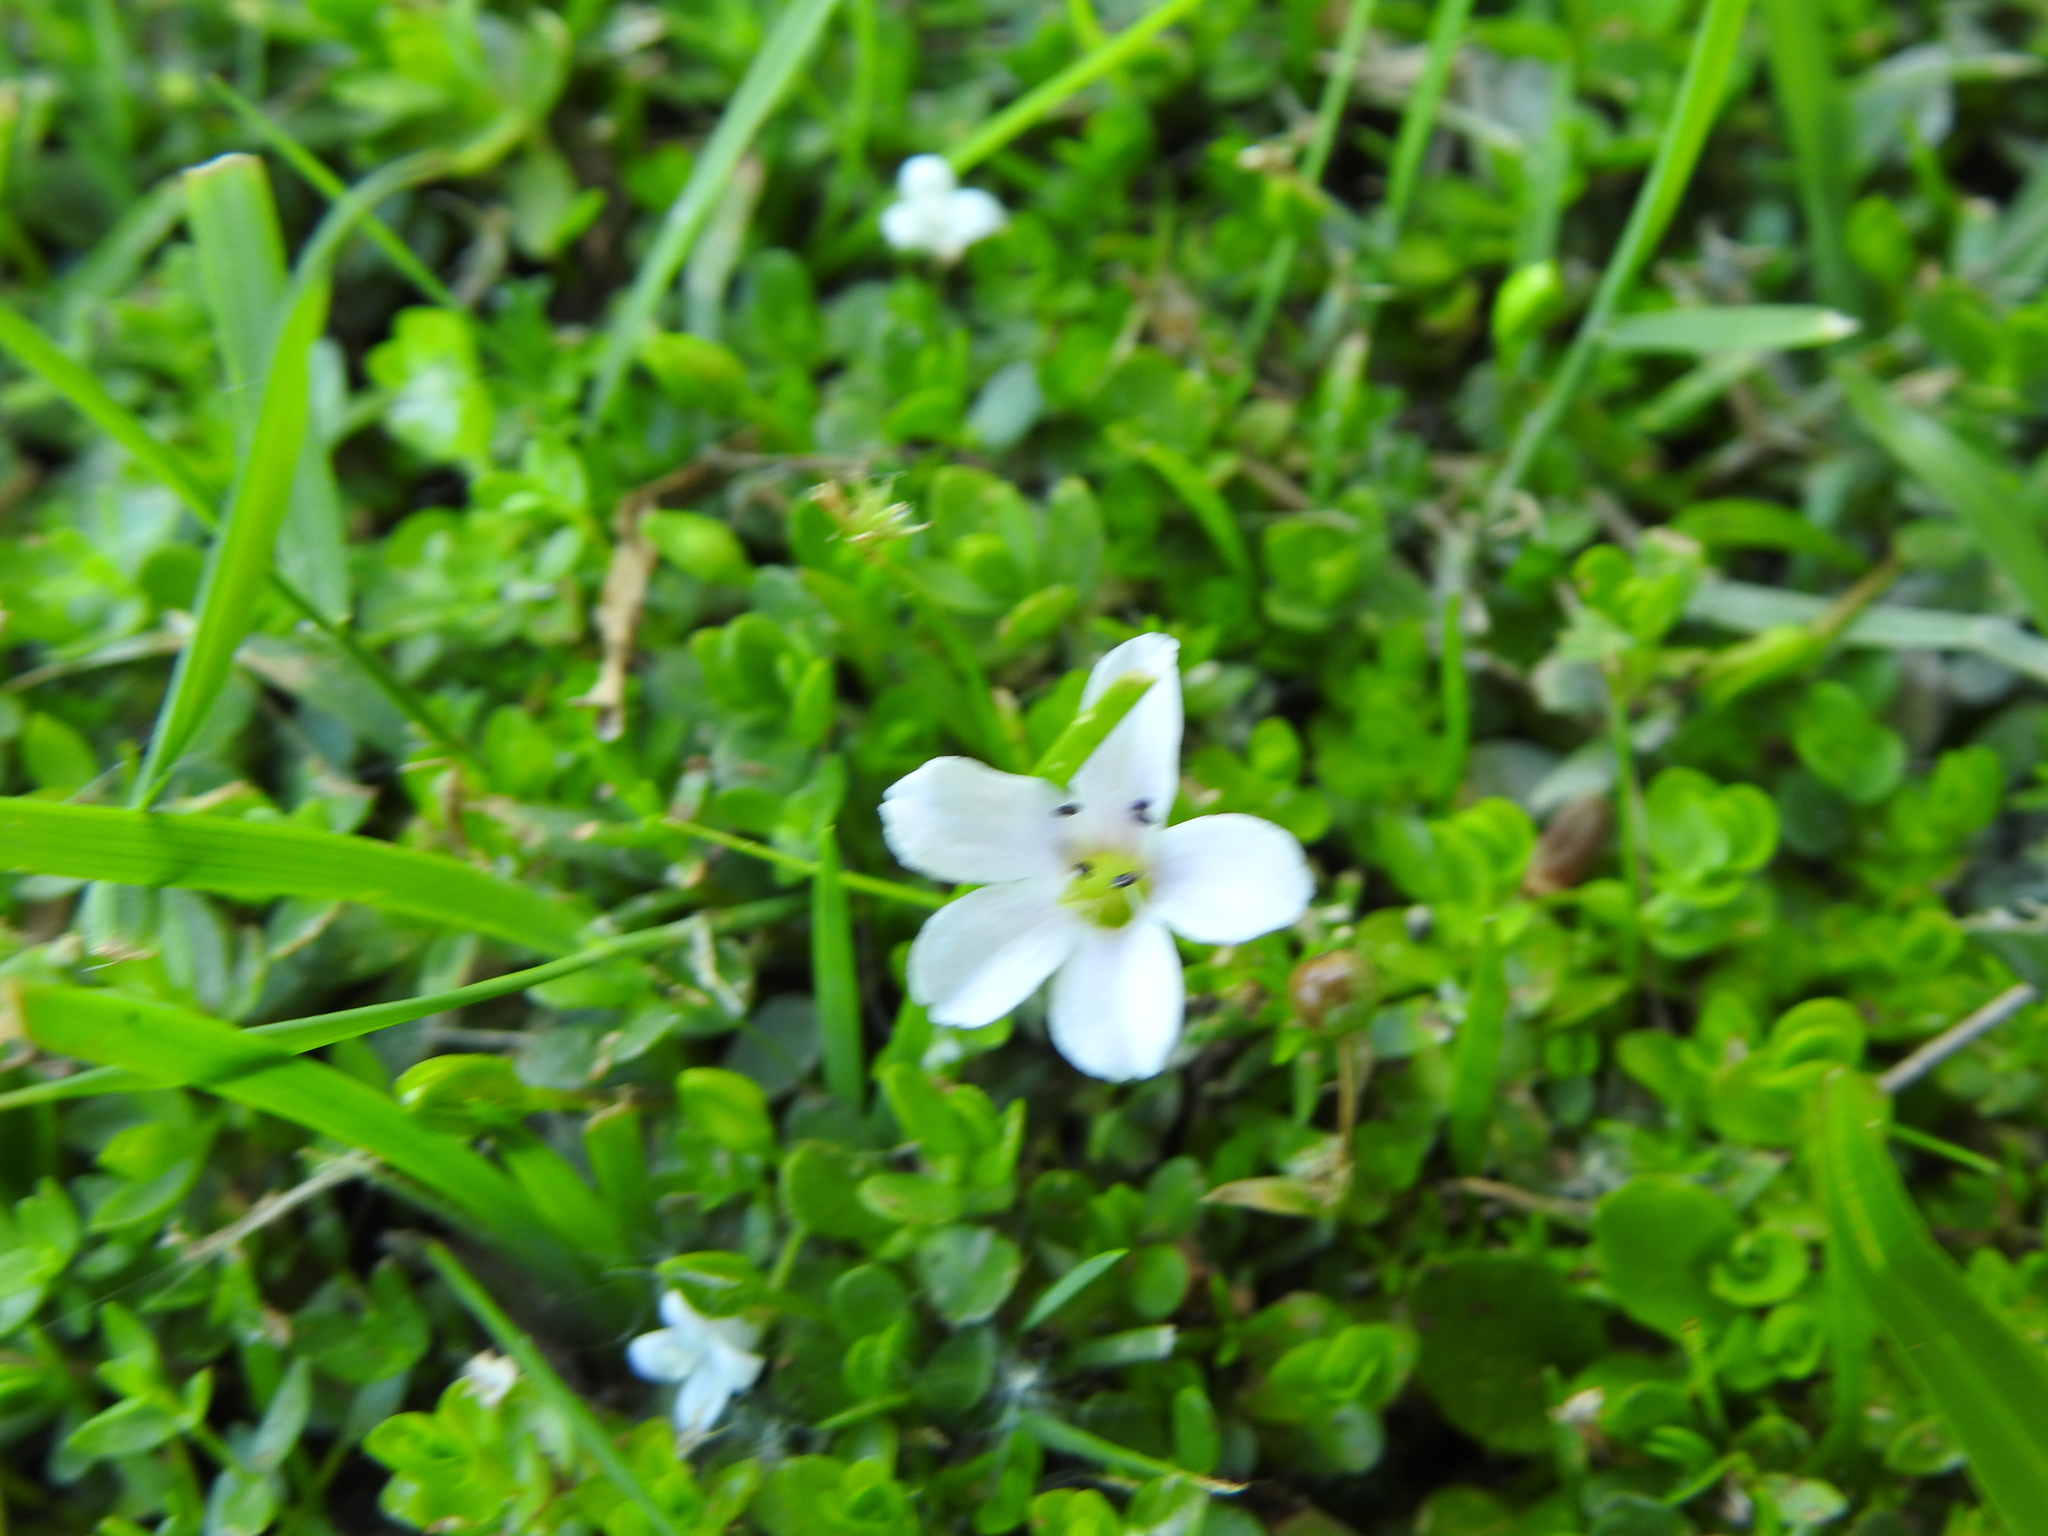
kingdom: Plantae
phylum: Tracheophyta
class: Magnoliopsida
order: Lamiales
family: Plantaginaceae
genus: Bacopa
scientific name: Bacopa monnieri
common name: Indian-pennywort
